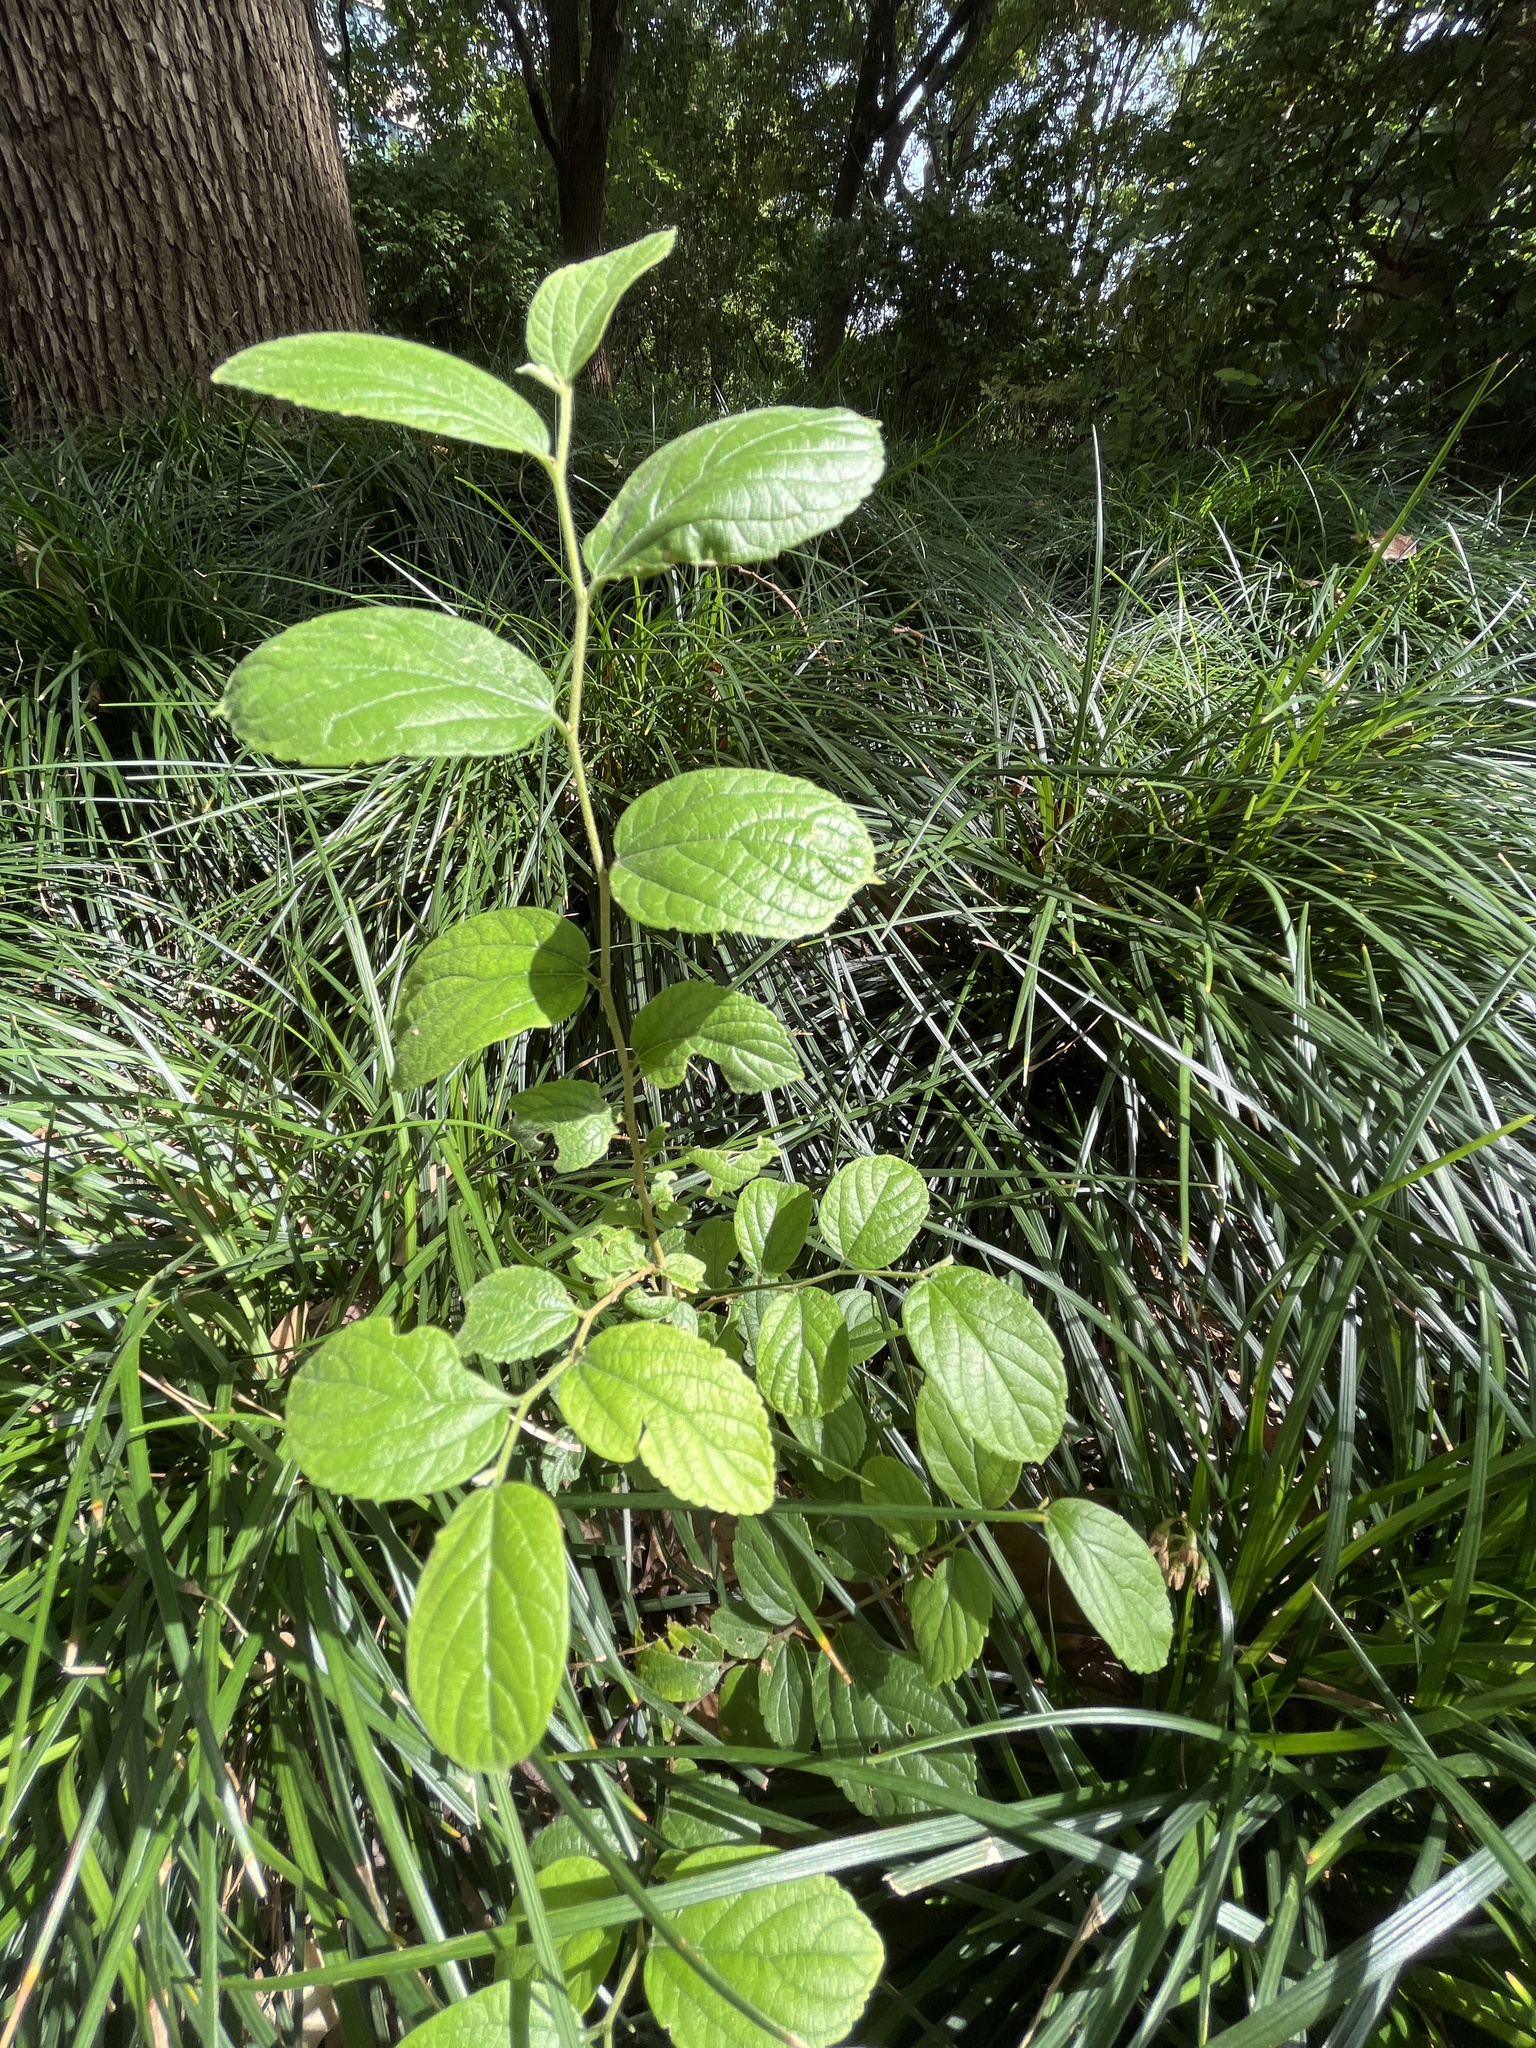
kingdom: Plantae
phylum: Tracheophyta
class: Magnoliopsida
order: Rosales
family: Cannabaceae
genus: Celtis
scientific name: Celtis sinensis
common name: Chinese hackberry
